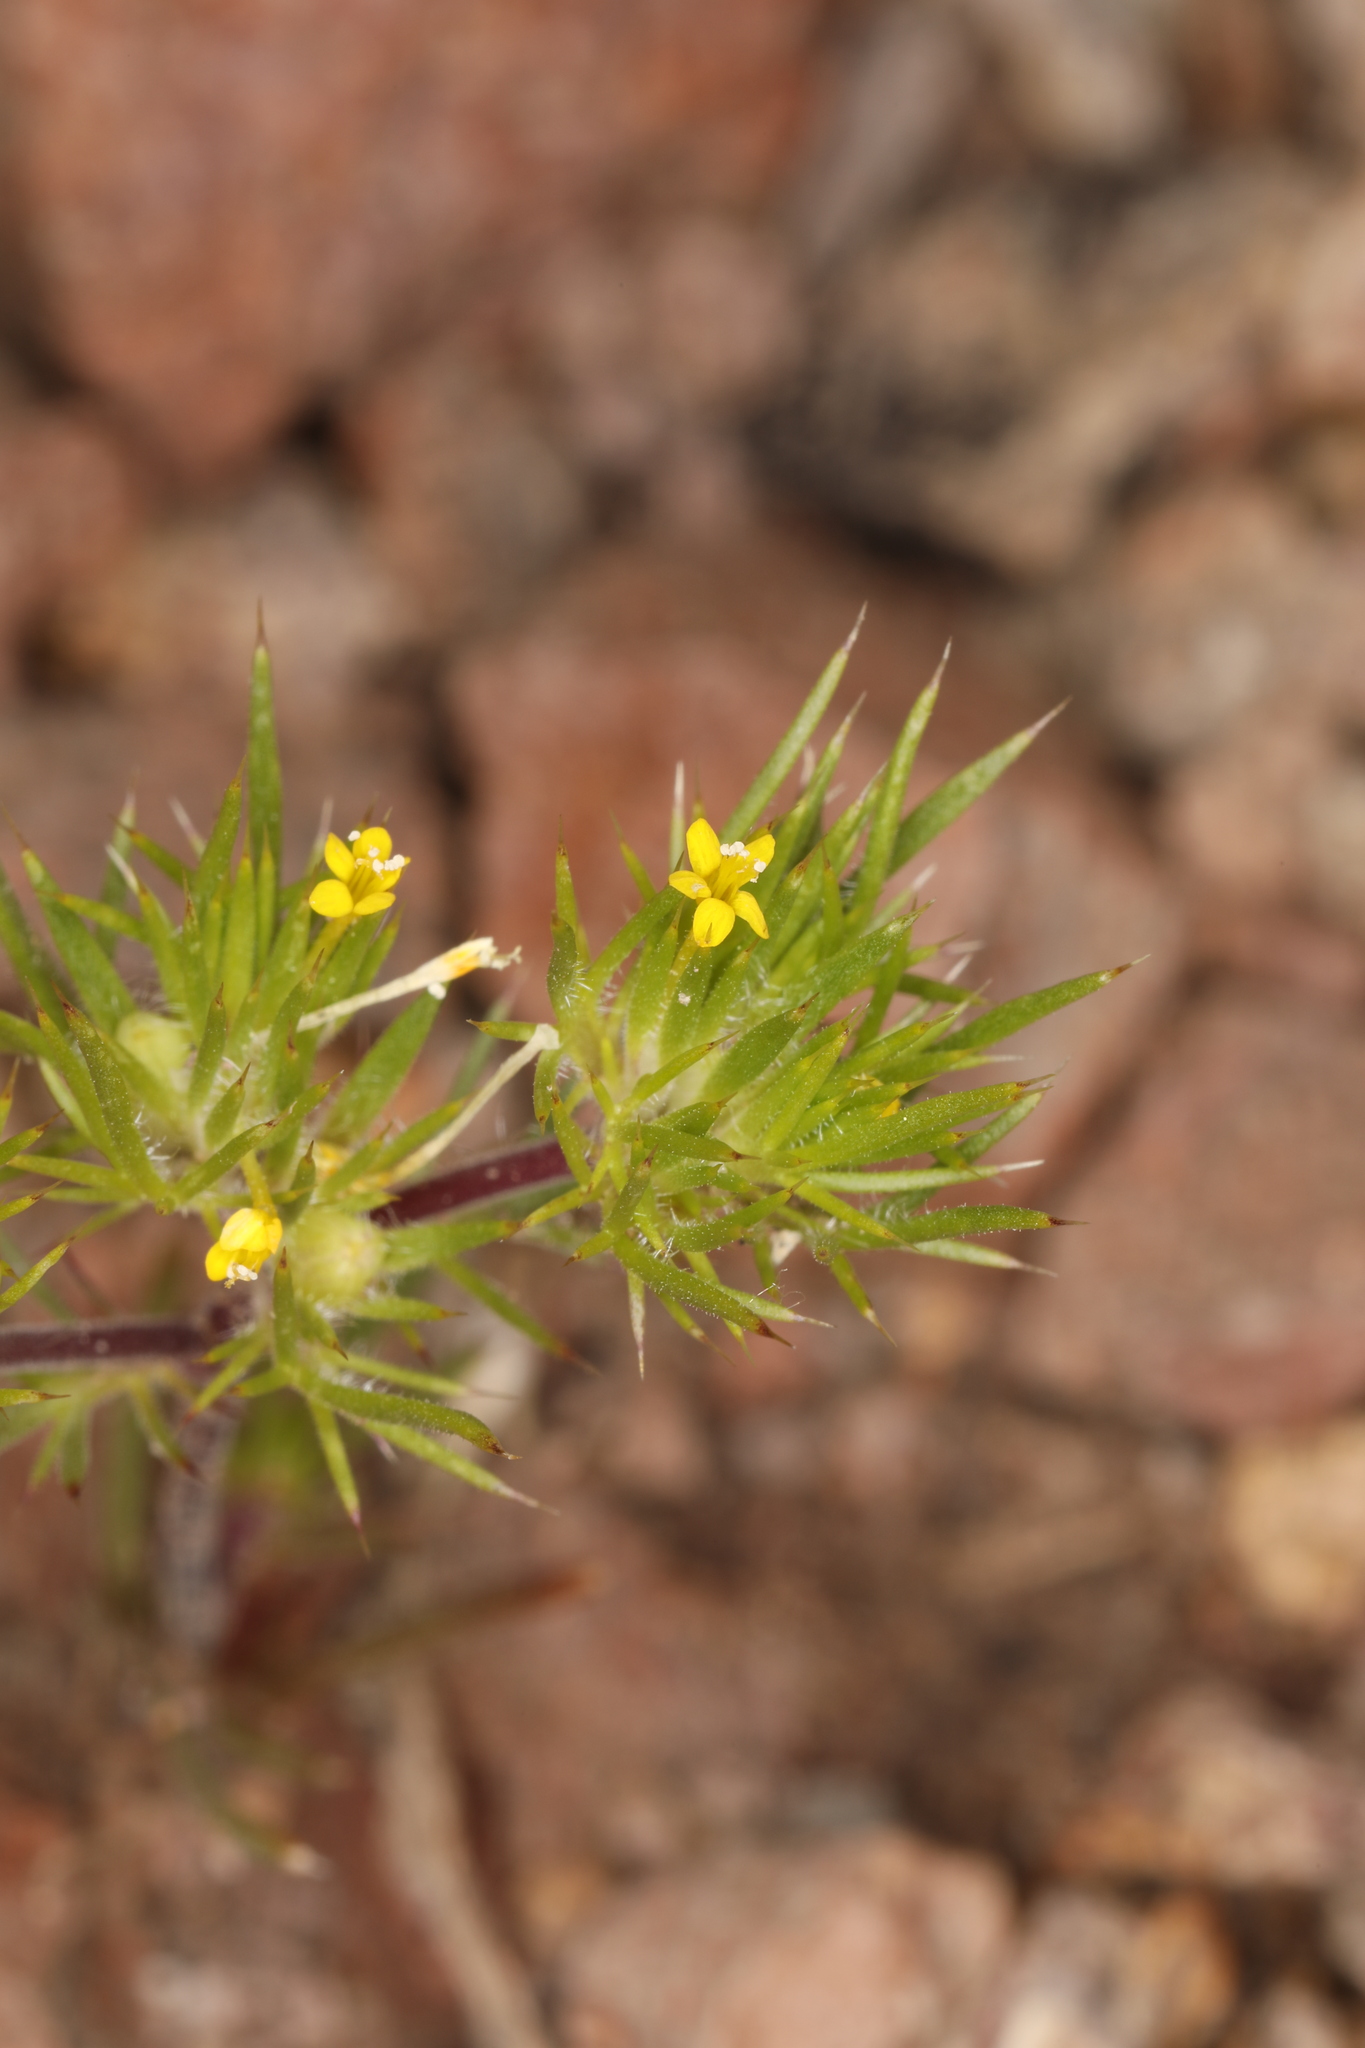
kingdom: Plantae
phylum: Tracheophyta
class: Magnoliopsida
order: Ericales
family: Polemoniaceae
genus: Navarretia
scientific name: Navarretia breweri
